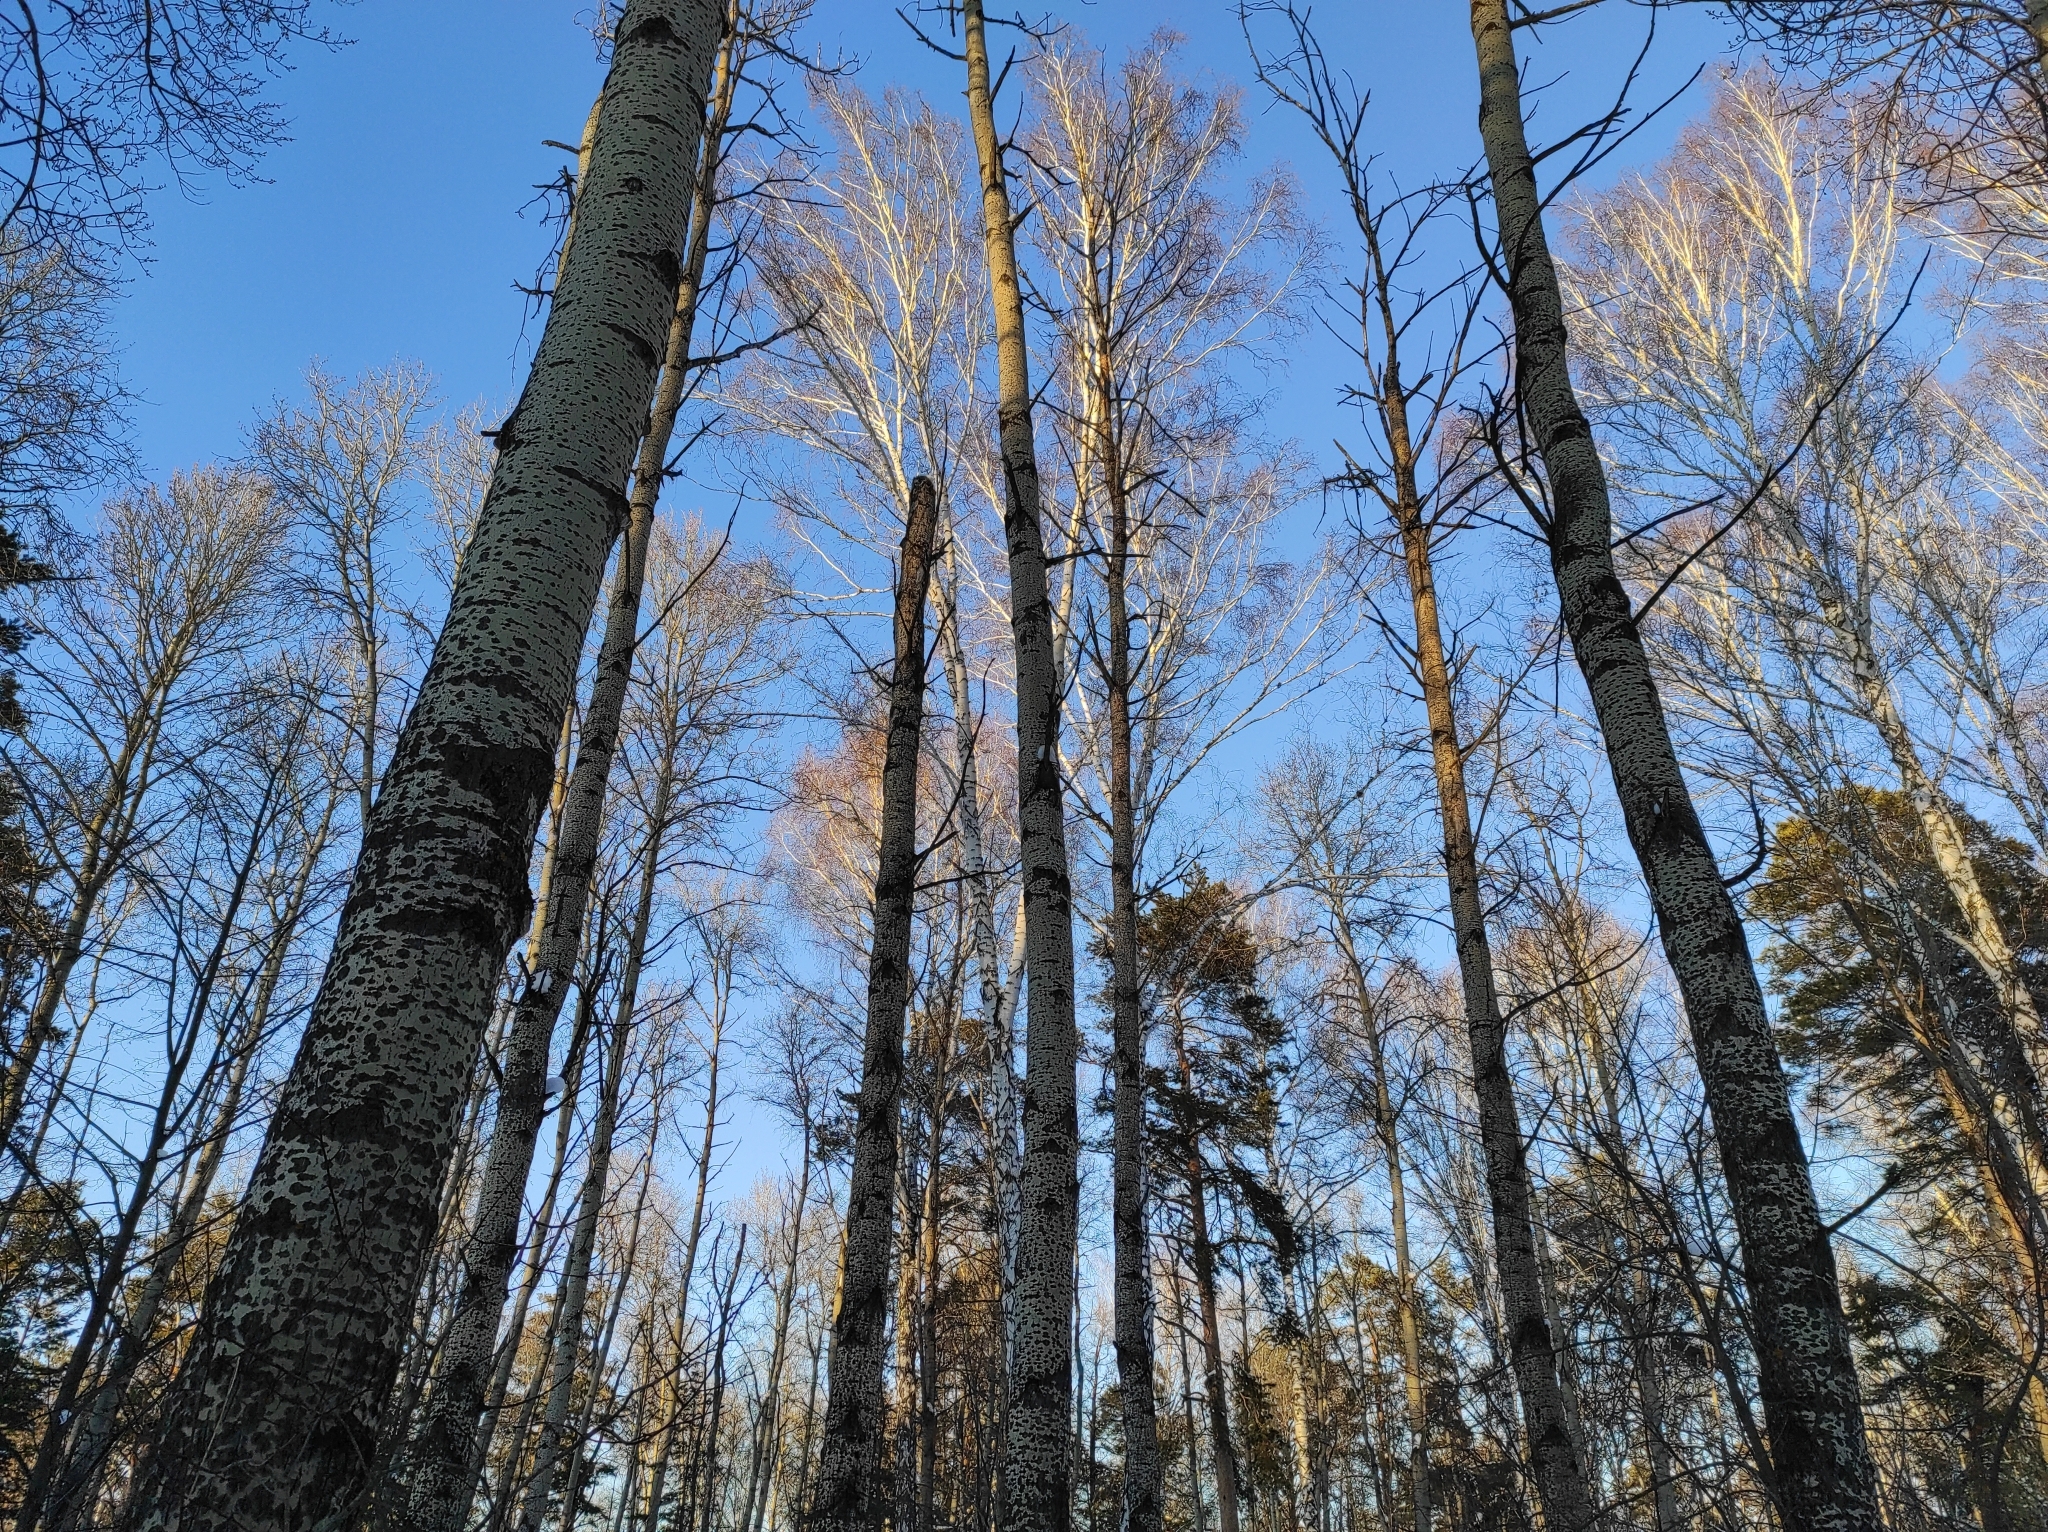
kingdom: Plantae
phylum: Tracheophyta
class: Magnoliopsida
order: Malpighiales
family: Salicaceae
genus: Populus
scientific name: Populus tremula
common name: European aspen
